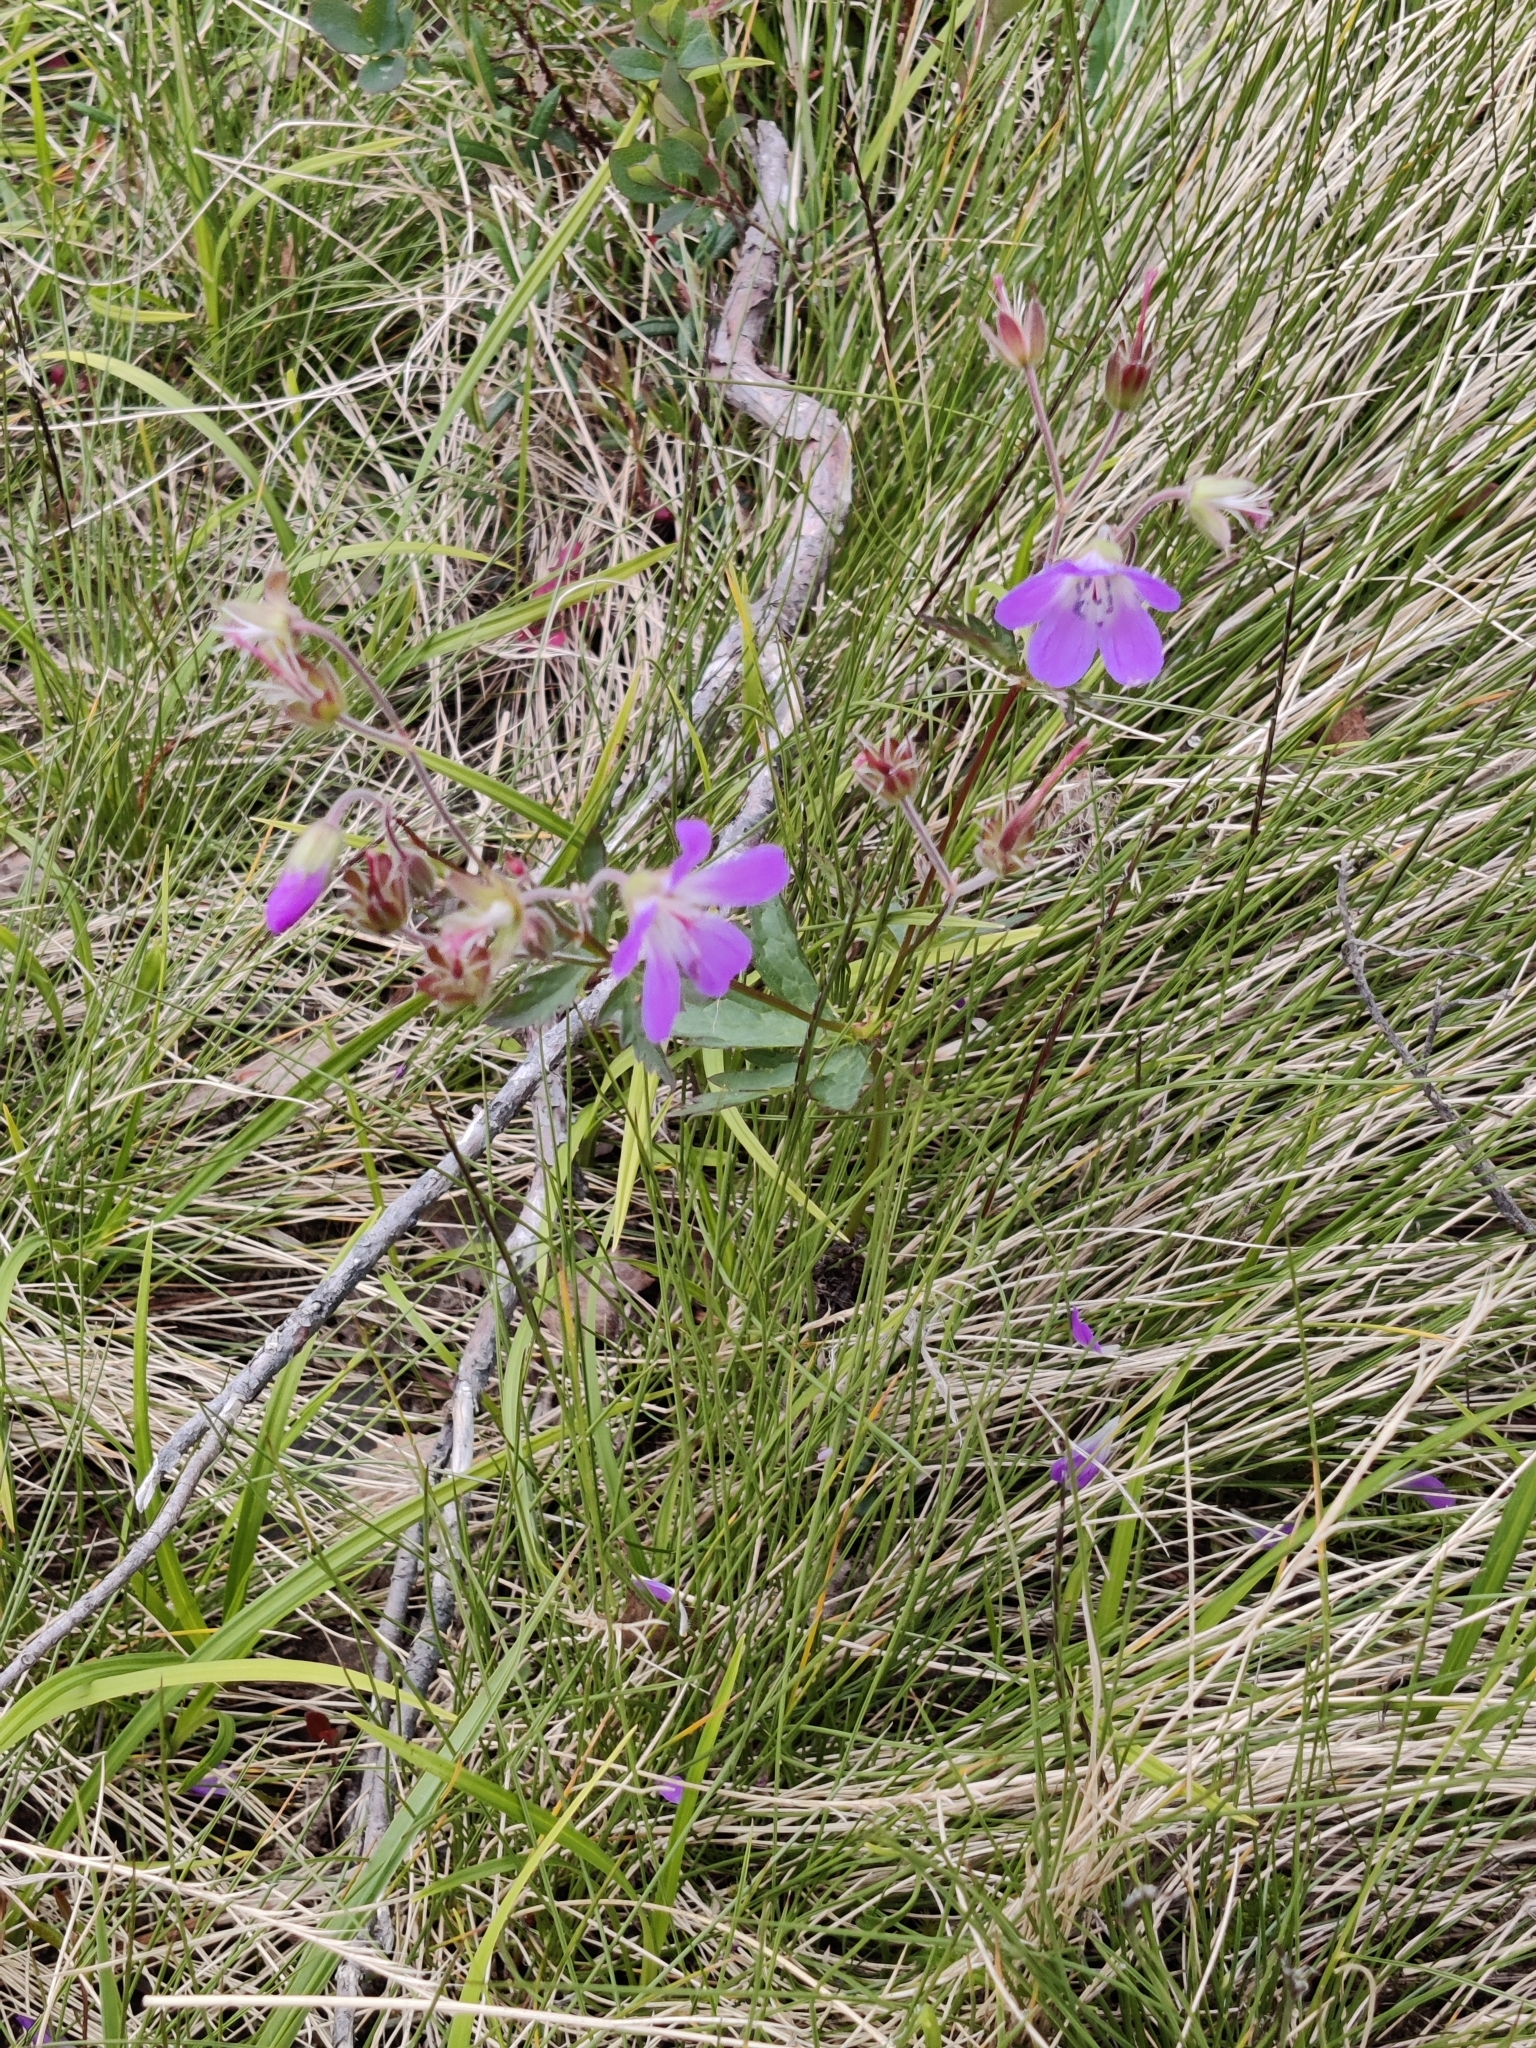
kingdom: Plantae
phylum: Tracheophyta
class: Magnoliopsida
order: Geraniales
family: Geraniaceae
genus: Geranium
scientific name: Geranium sylvaticum
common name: Wood crane's-bill
